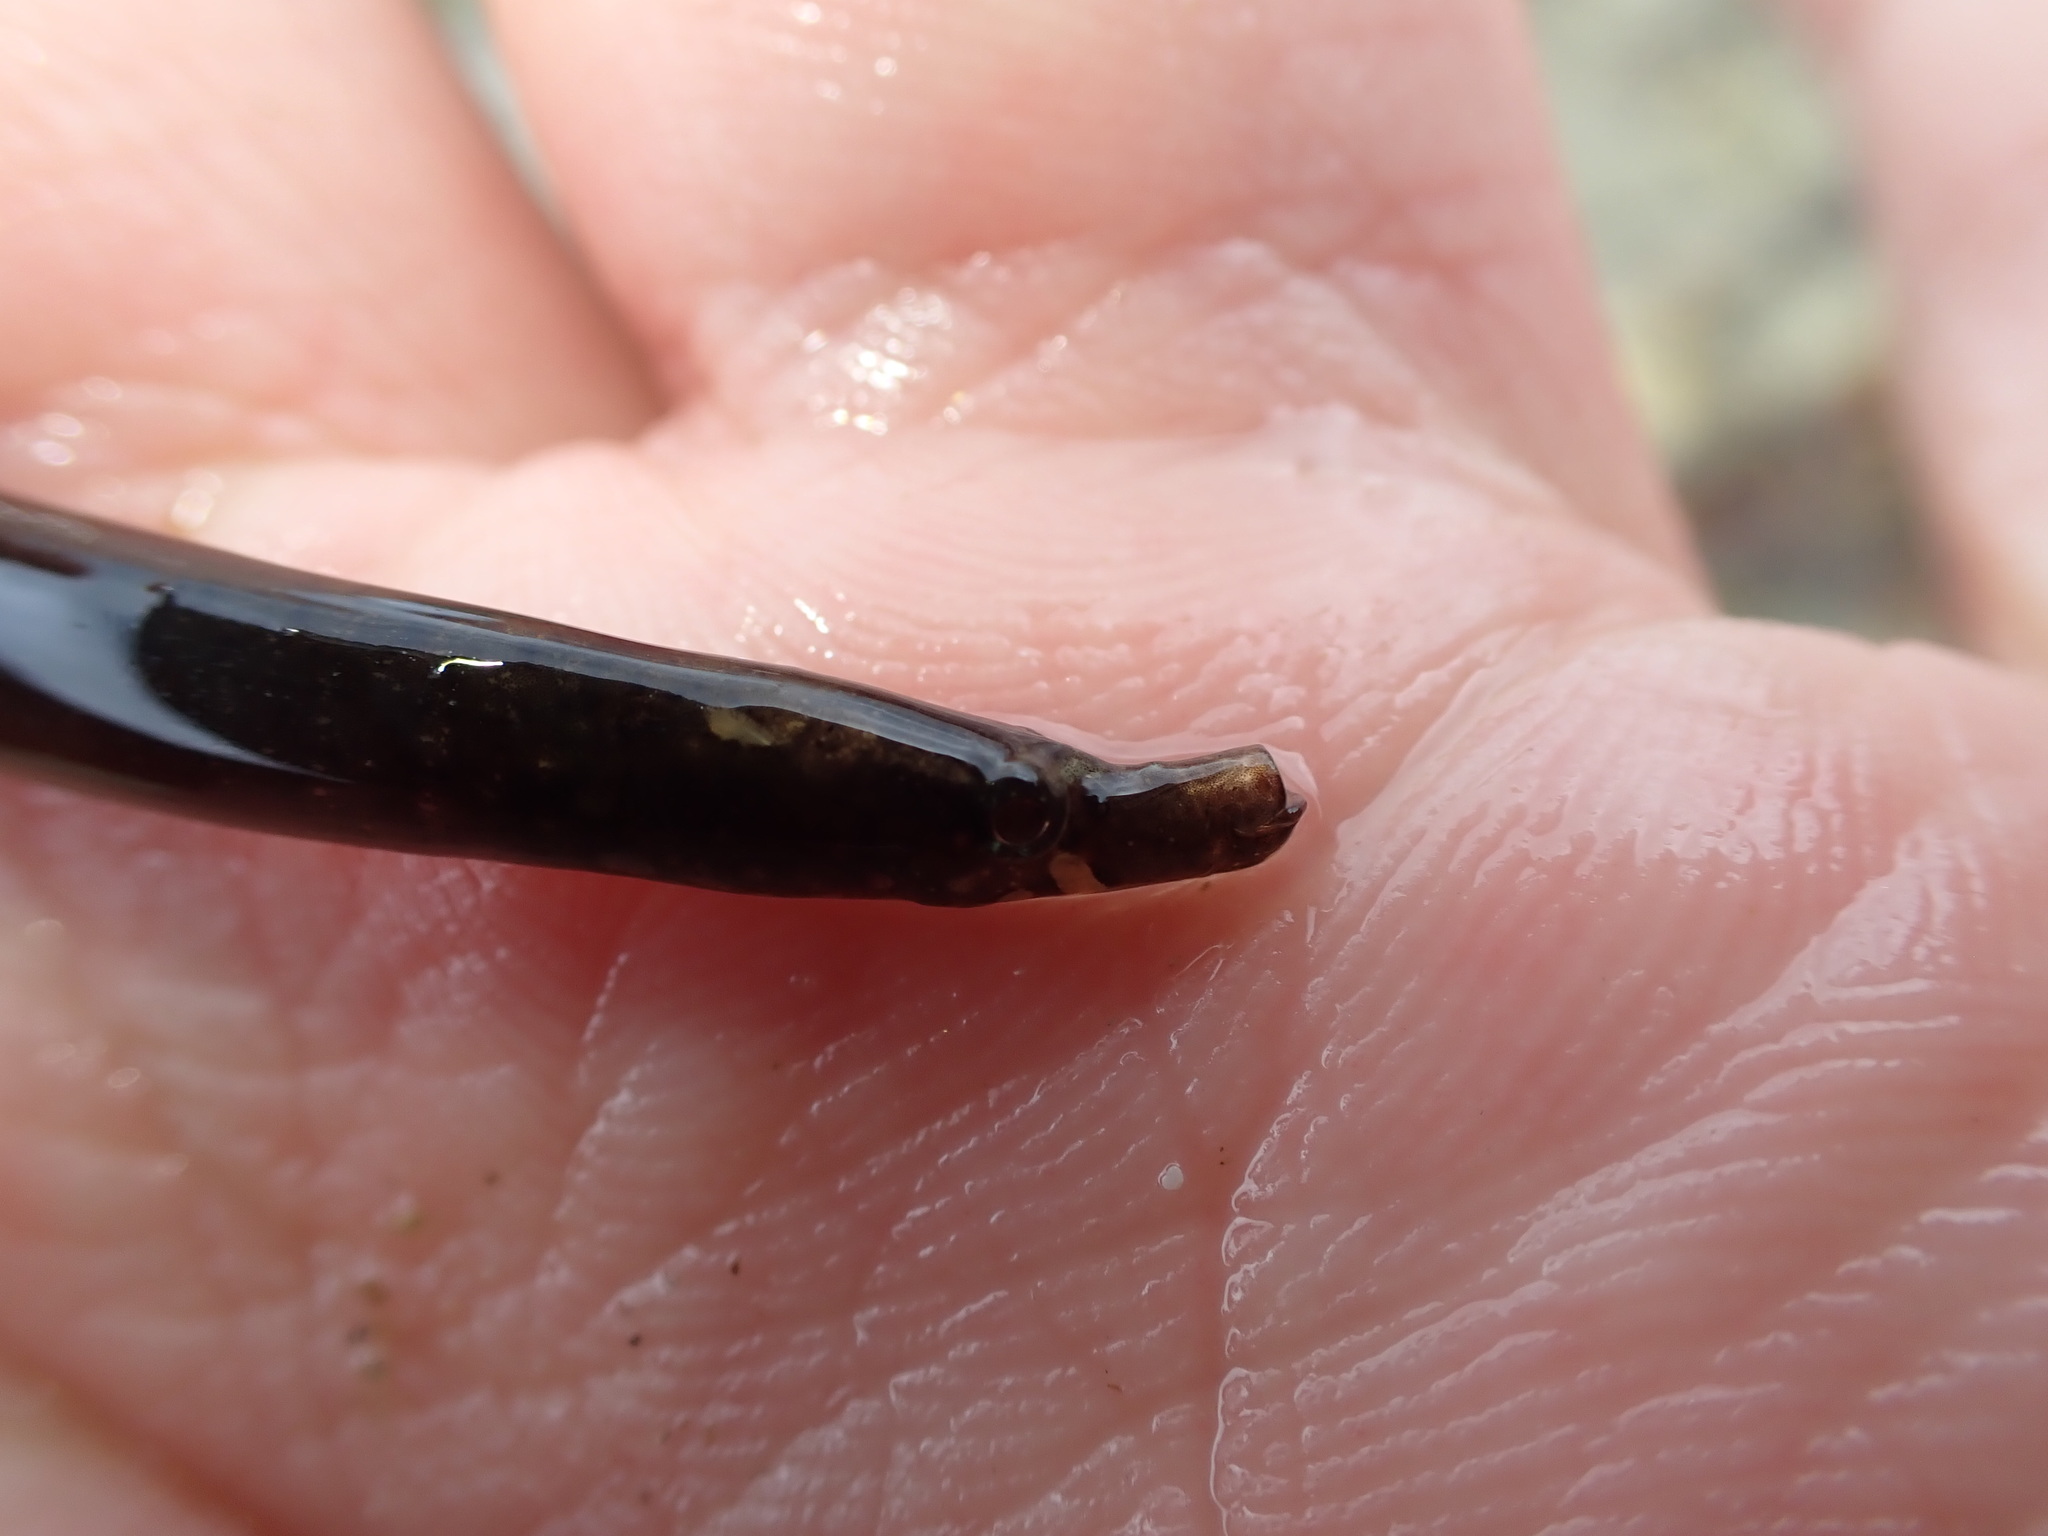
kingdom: Animalia
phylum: Chordata
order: Syngnathiformes
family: Syngnathidae
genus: Nerophis
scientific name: Nerophis lumbriciformis
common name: Worm pipefish
